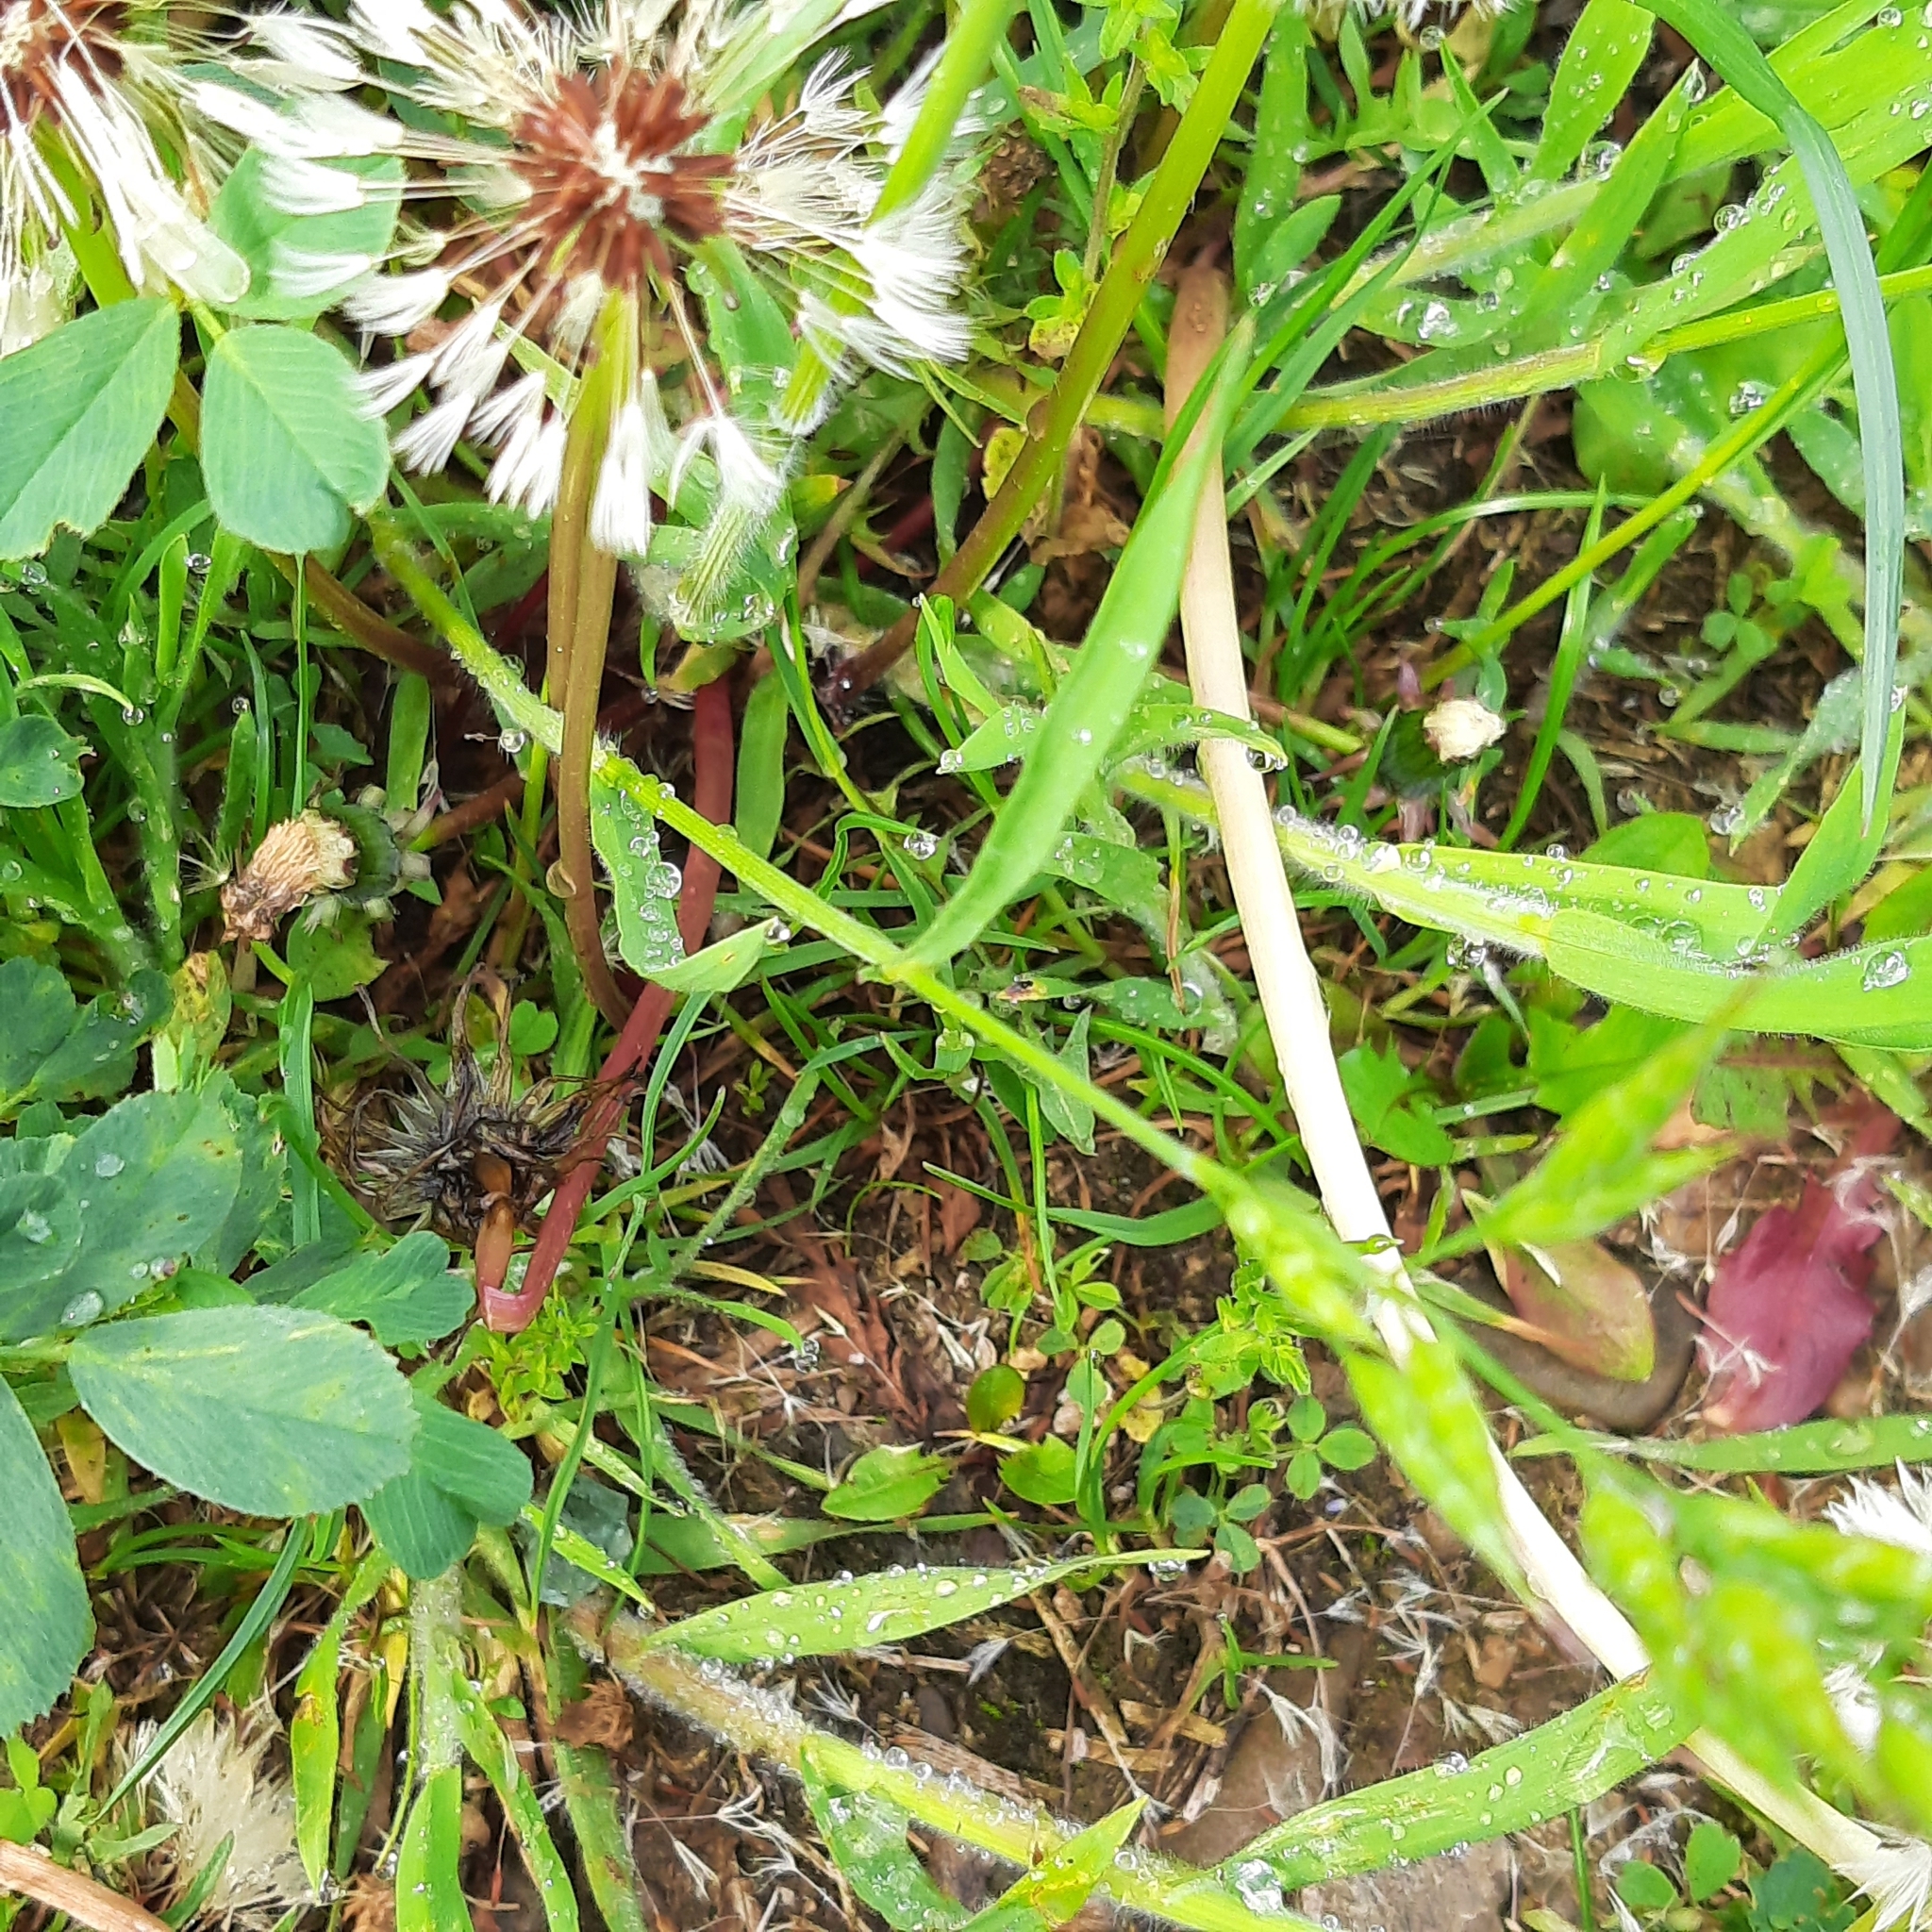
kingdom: Plantae
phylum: Tracheophyta
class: Liliopsida
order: Poales
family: Poaceae
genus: Bromus
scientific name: Bromus hordeaceus
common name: Soft brome
